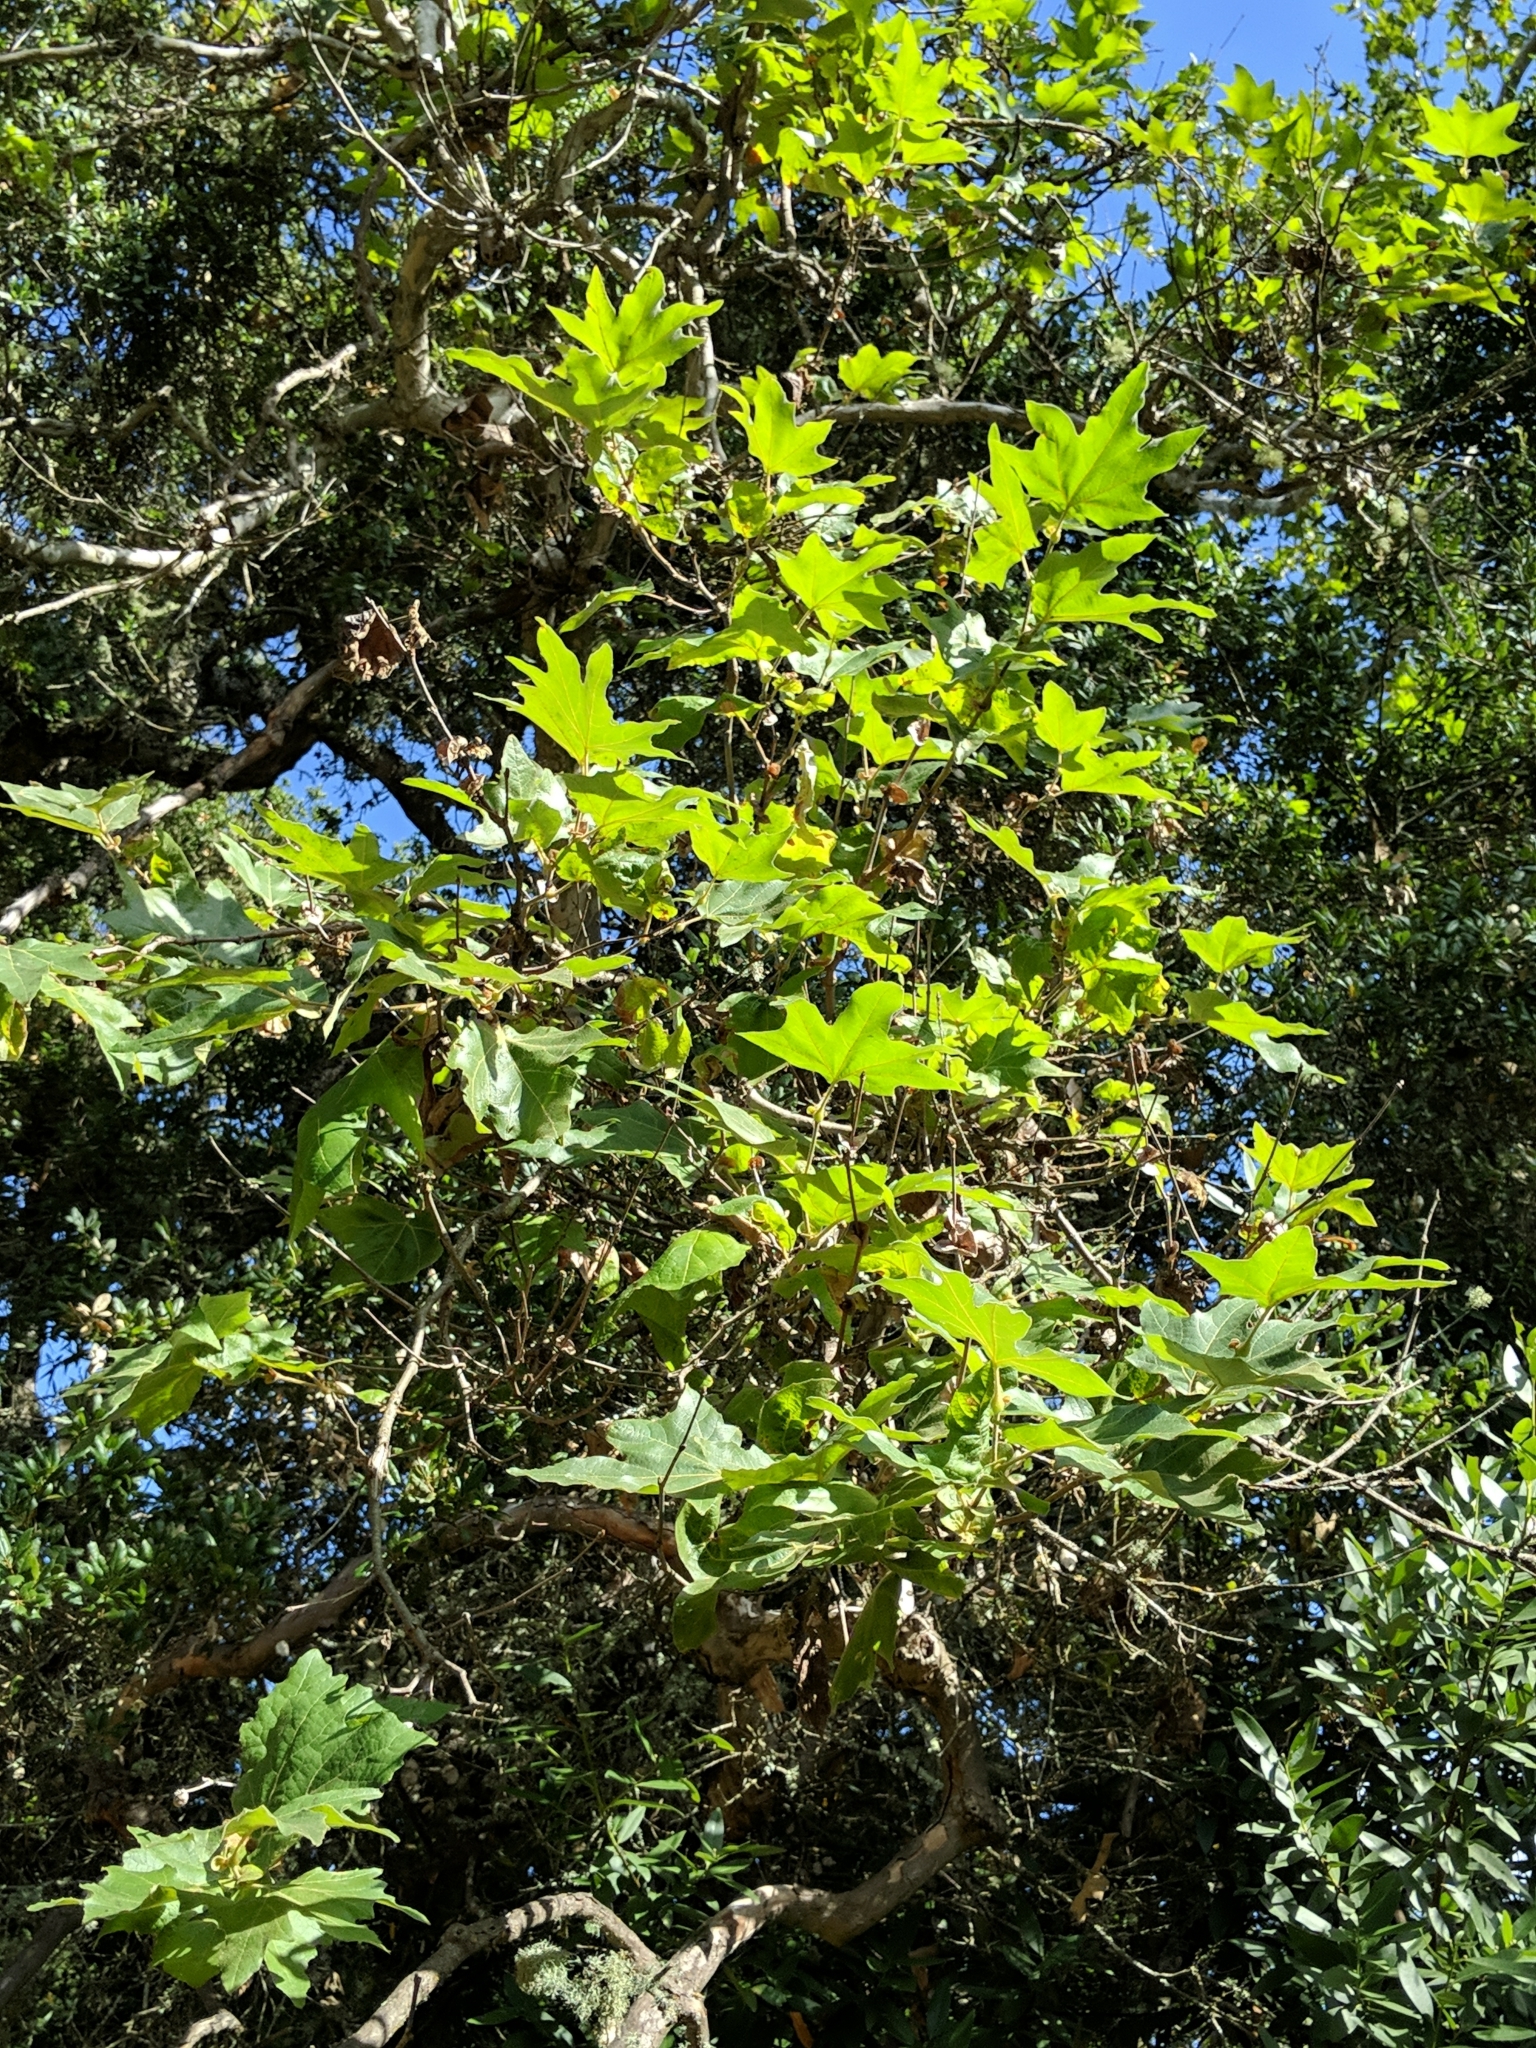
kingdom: Plantae
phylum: Tracheophyta
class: Magnoliopsida
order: Proteales
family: Platanaceae
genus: Platanus
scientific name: Platanus racemosa
